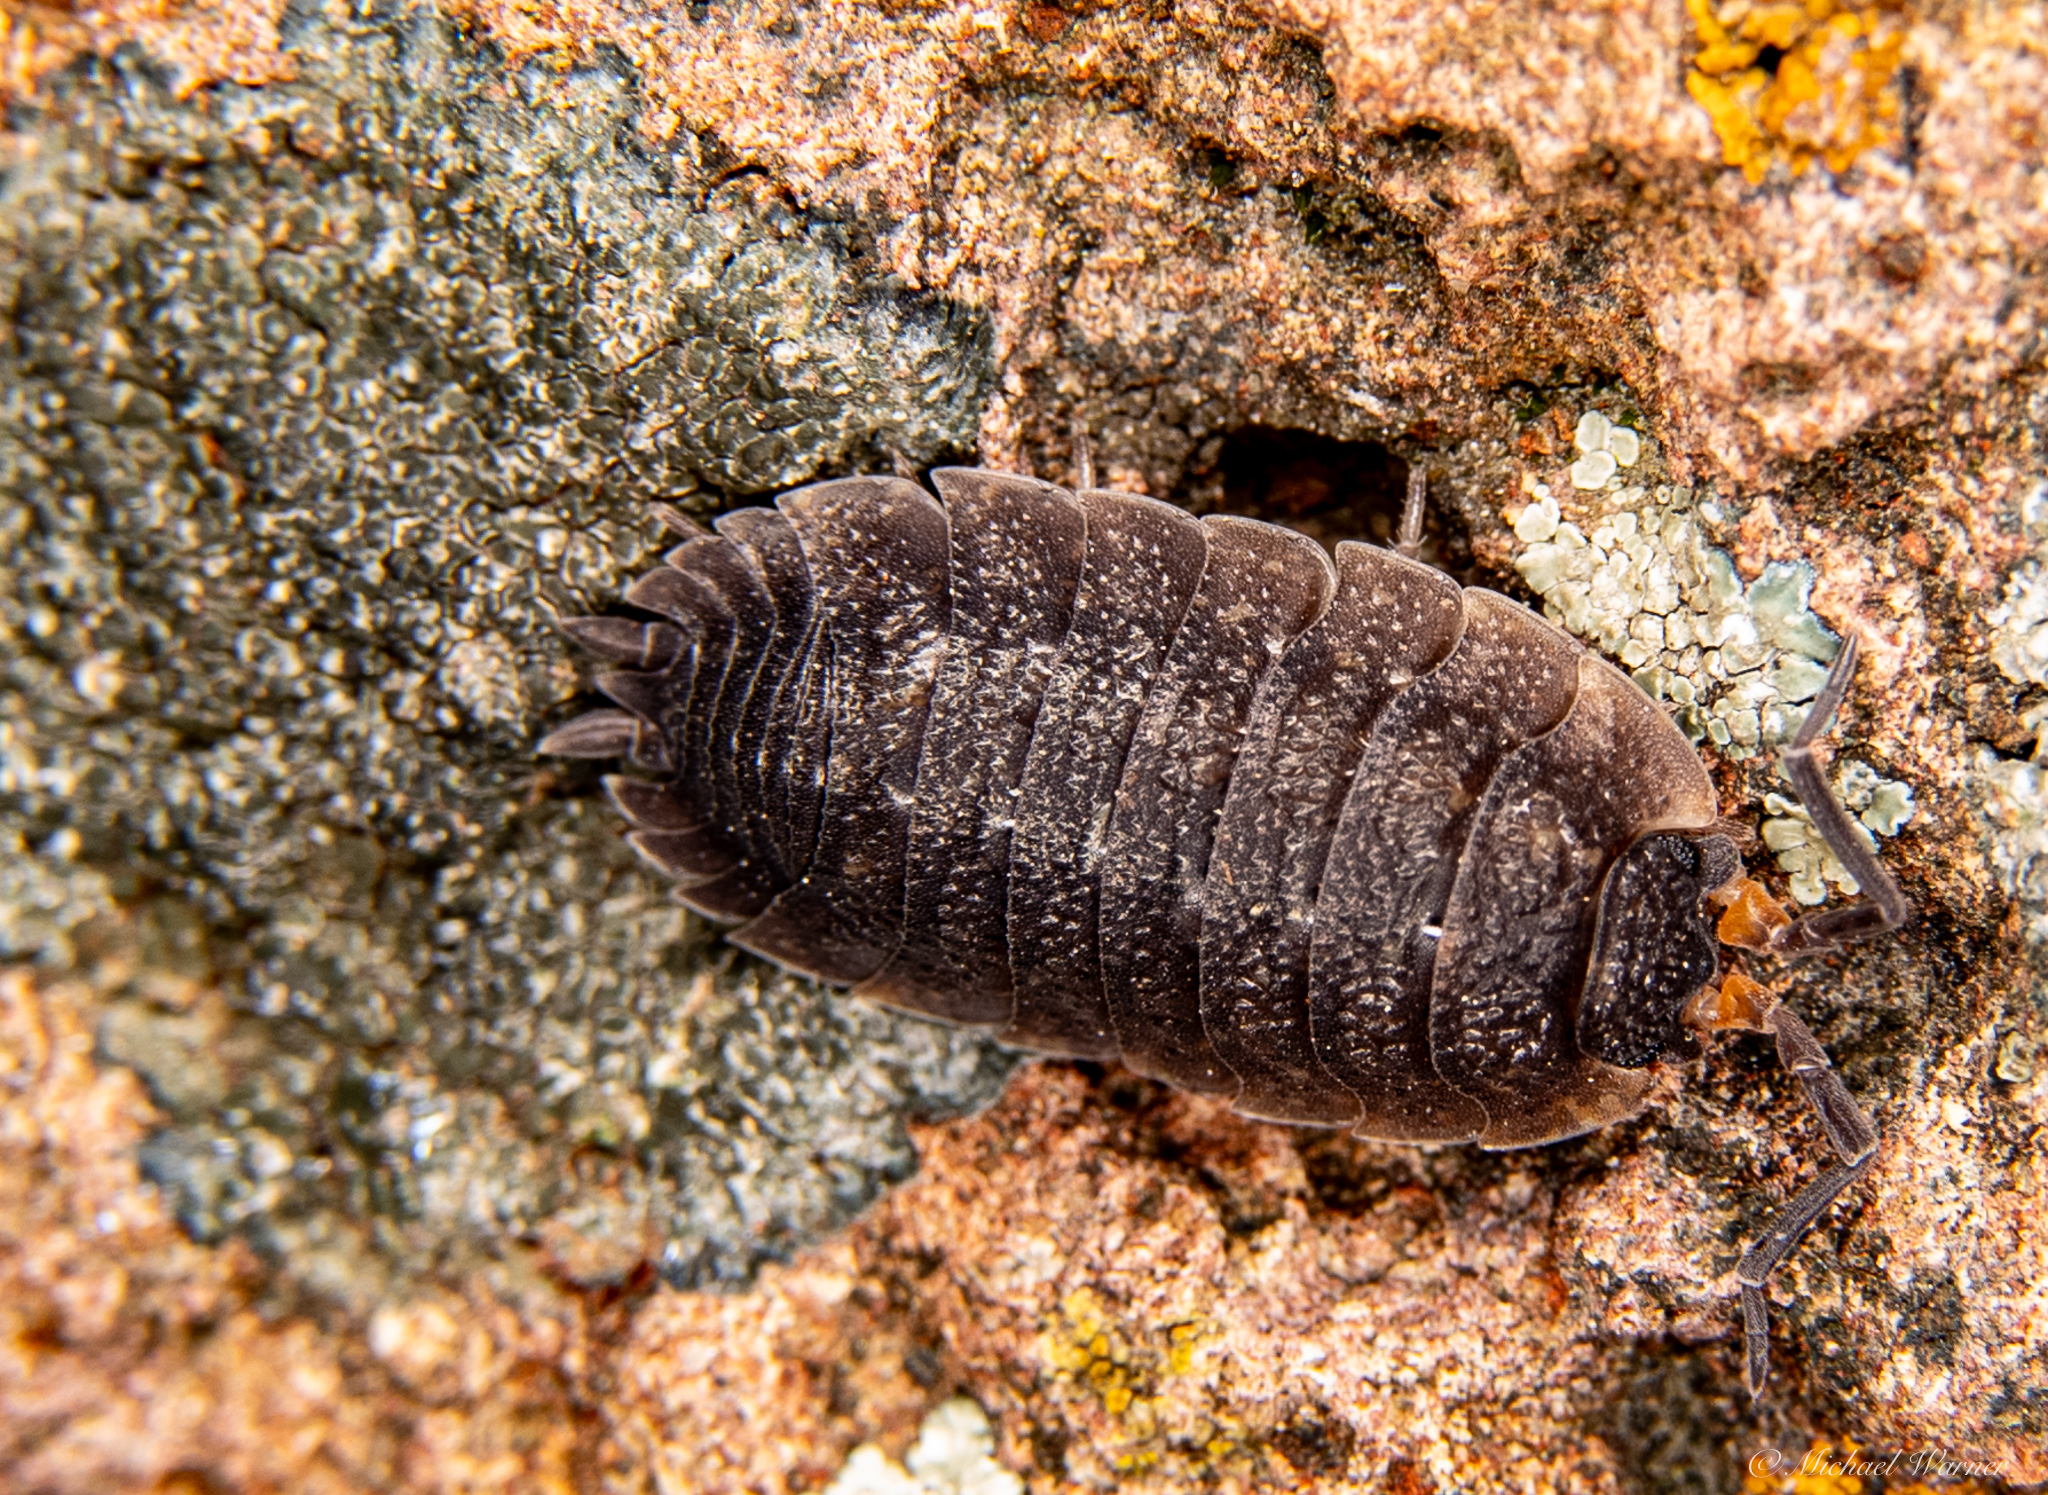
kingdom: Animalia
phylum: Arthropoda
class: Malacostraca
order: Isopoda
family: Porcellionidae
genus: Porcellio
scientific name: Porcellio scaber
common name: Common rough woodlouse
